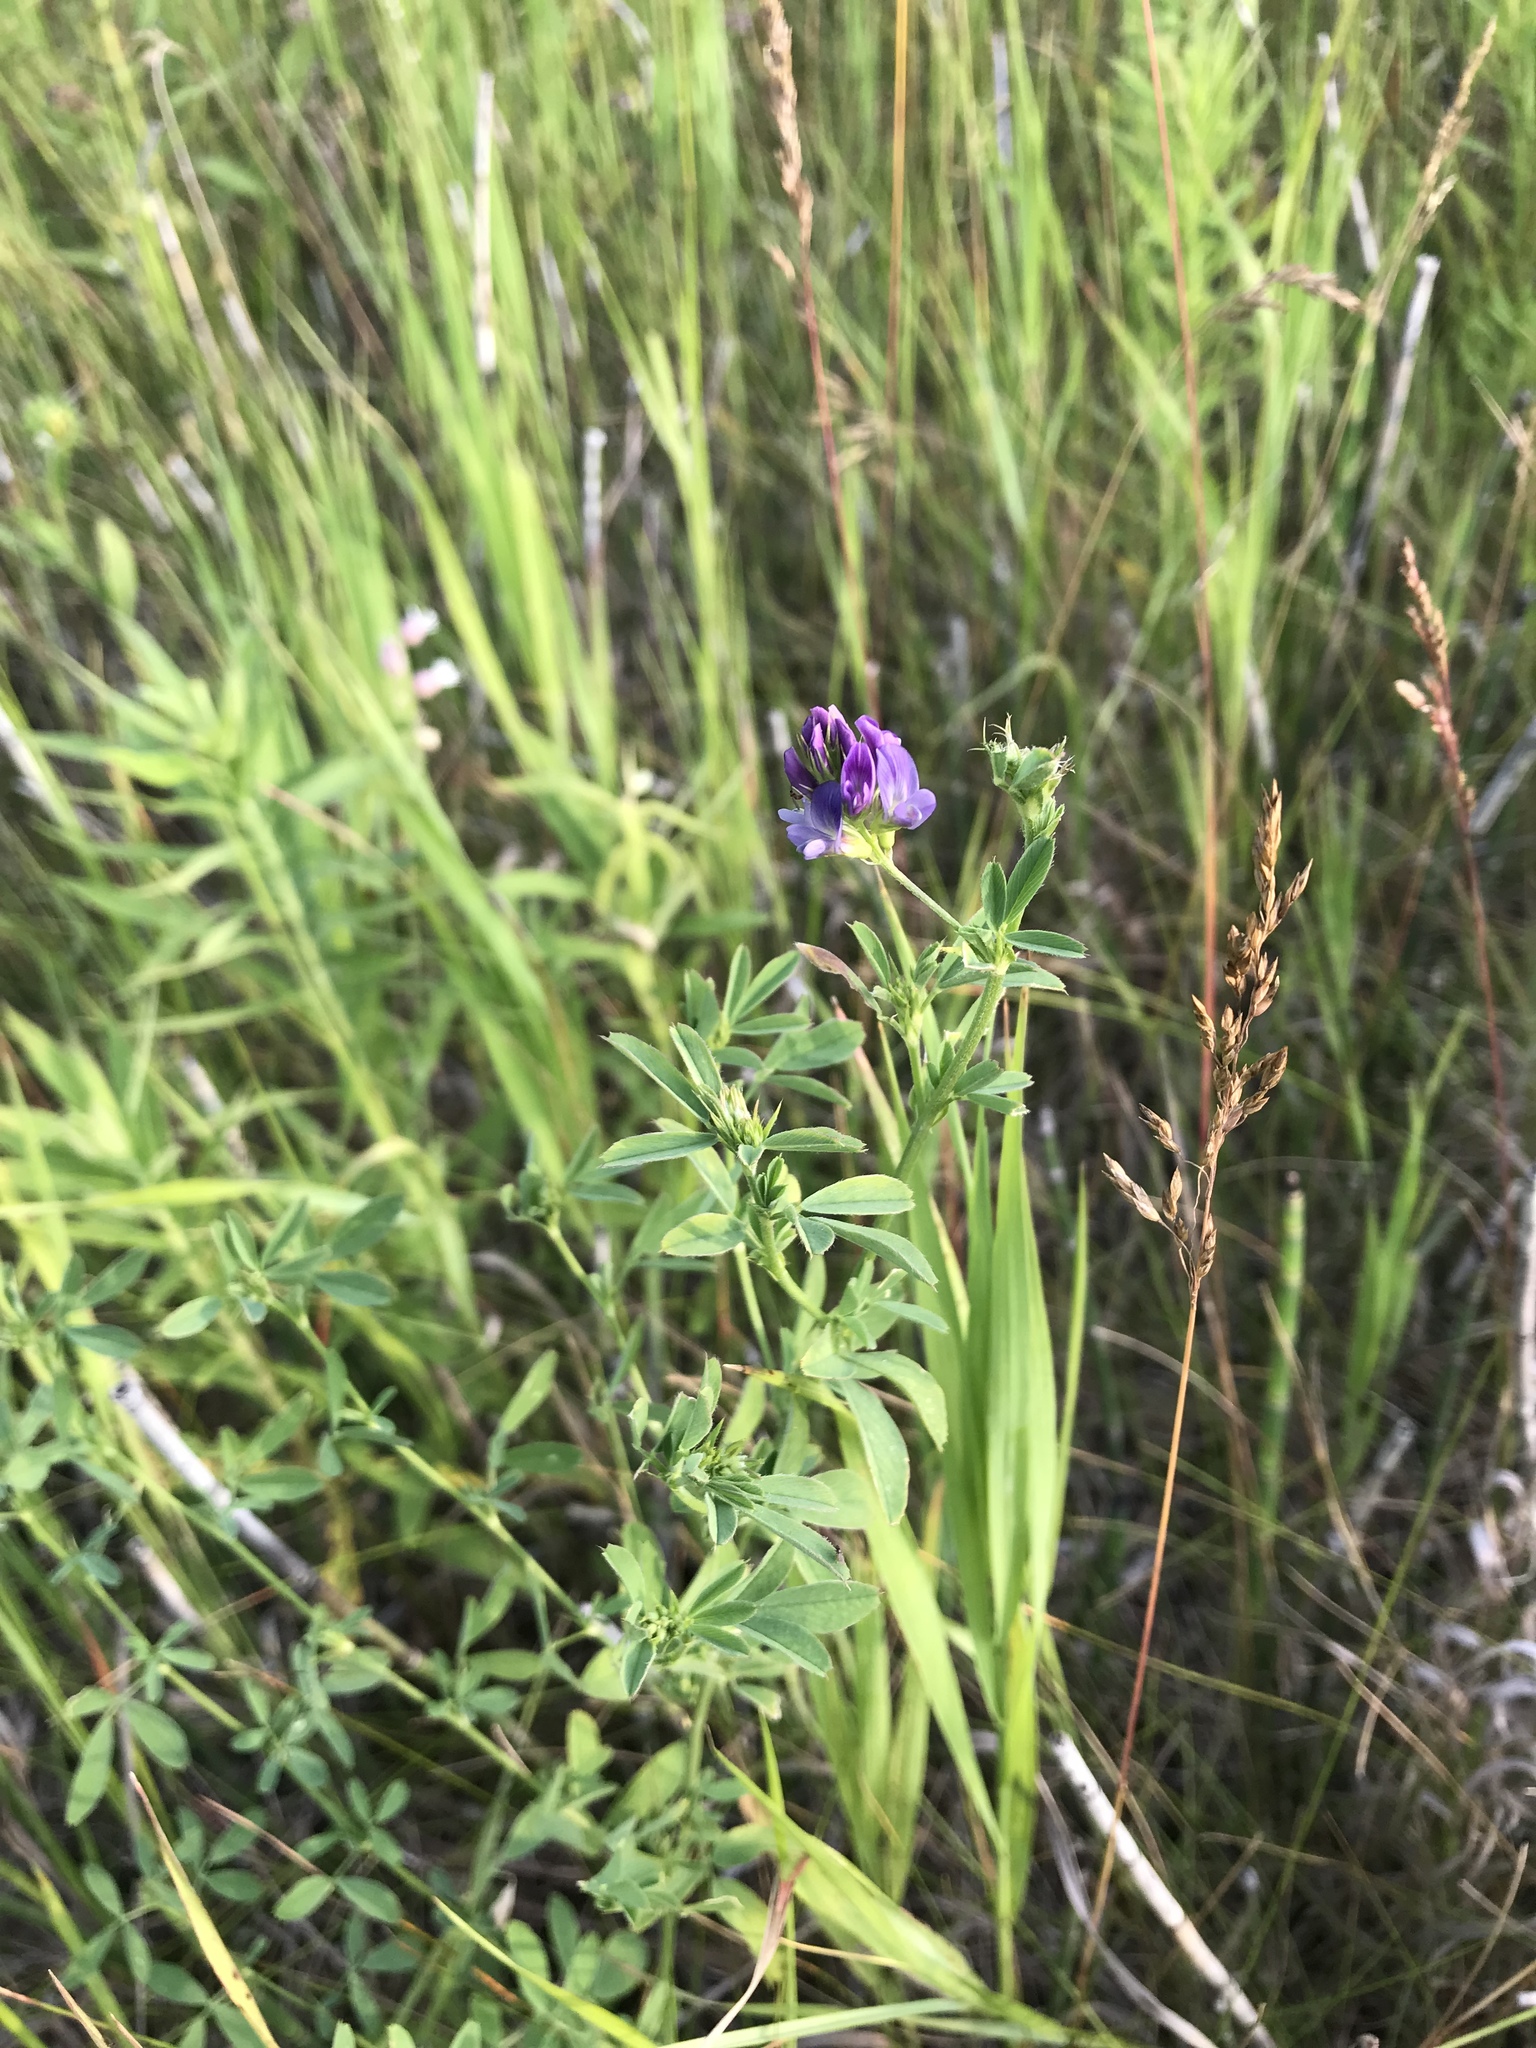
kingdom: Plantae
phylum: Tracheophyta
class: Magnoliopsida
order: Fabales
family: Fabaceae
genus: Medicago
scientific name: Medicago sativa
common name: Alfalfa
